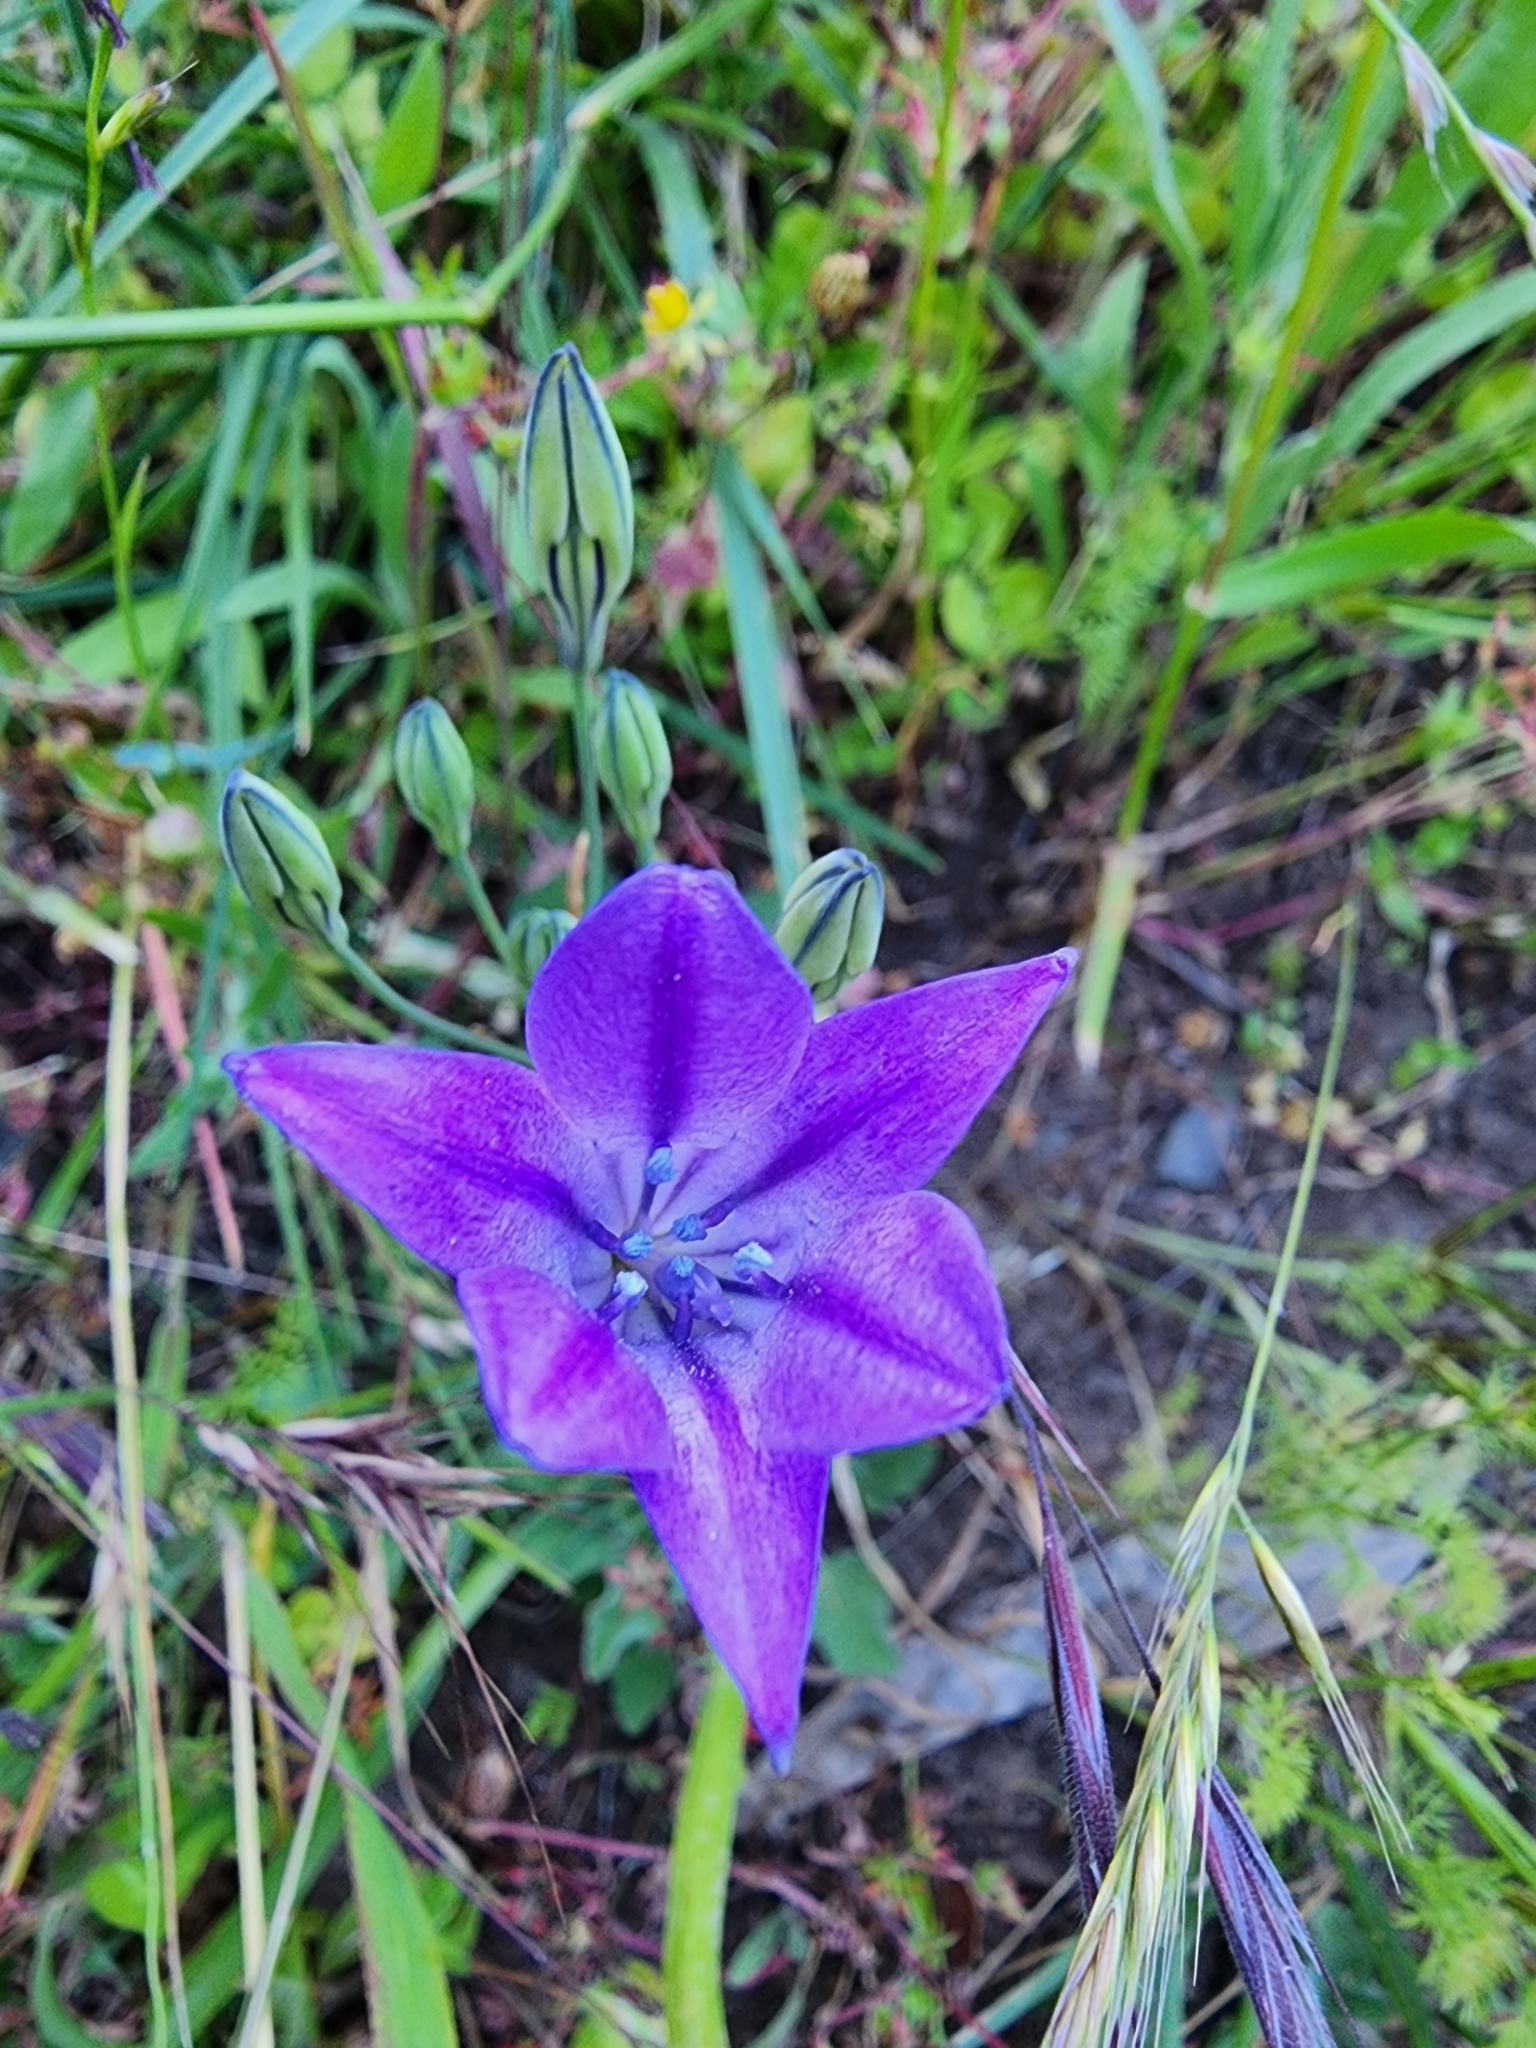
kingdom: Plantae
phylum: Tracheophyta
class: Liliopsida
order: Asparagales
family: Asparagaceae
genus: Triteleia
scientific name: Triteleia laxa
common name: Triplet-lily
